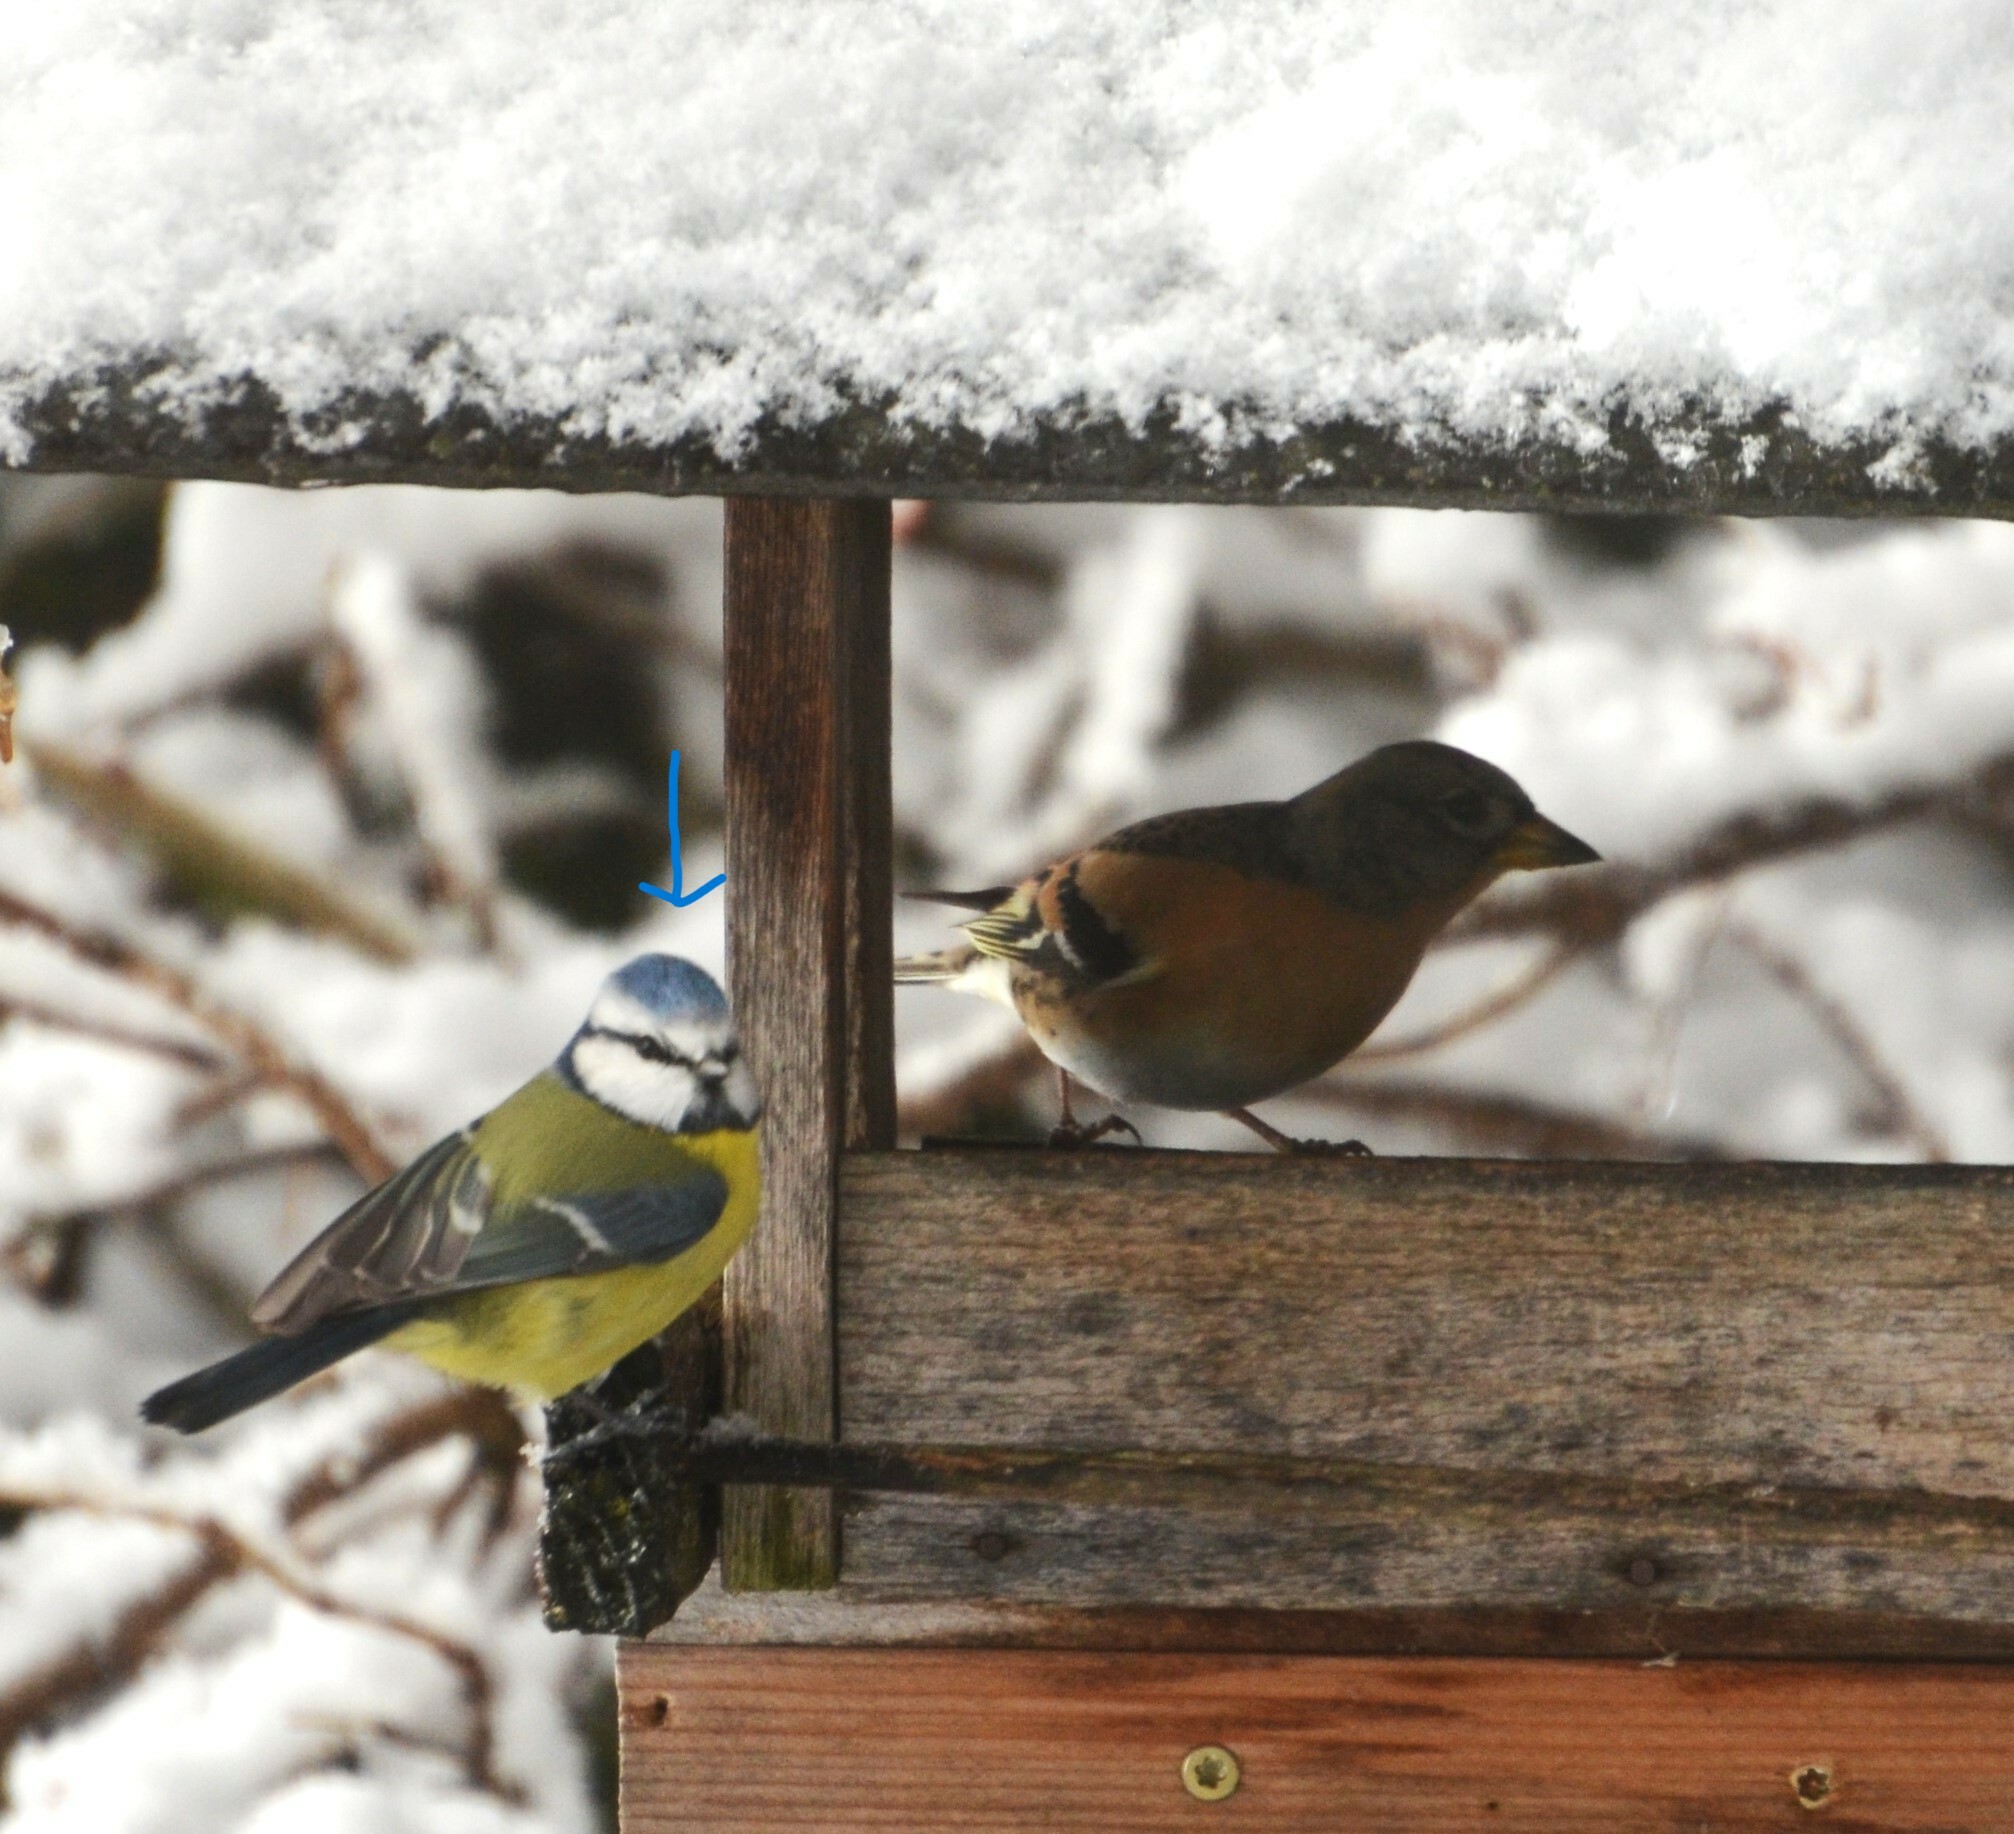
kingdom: Animalia
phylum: Chordata
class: Aves
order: Passeriformes
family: Paridae
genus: Cyanistes
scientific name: Cyanistes caeruleus
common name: Eurasian blue tit
